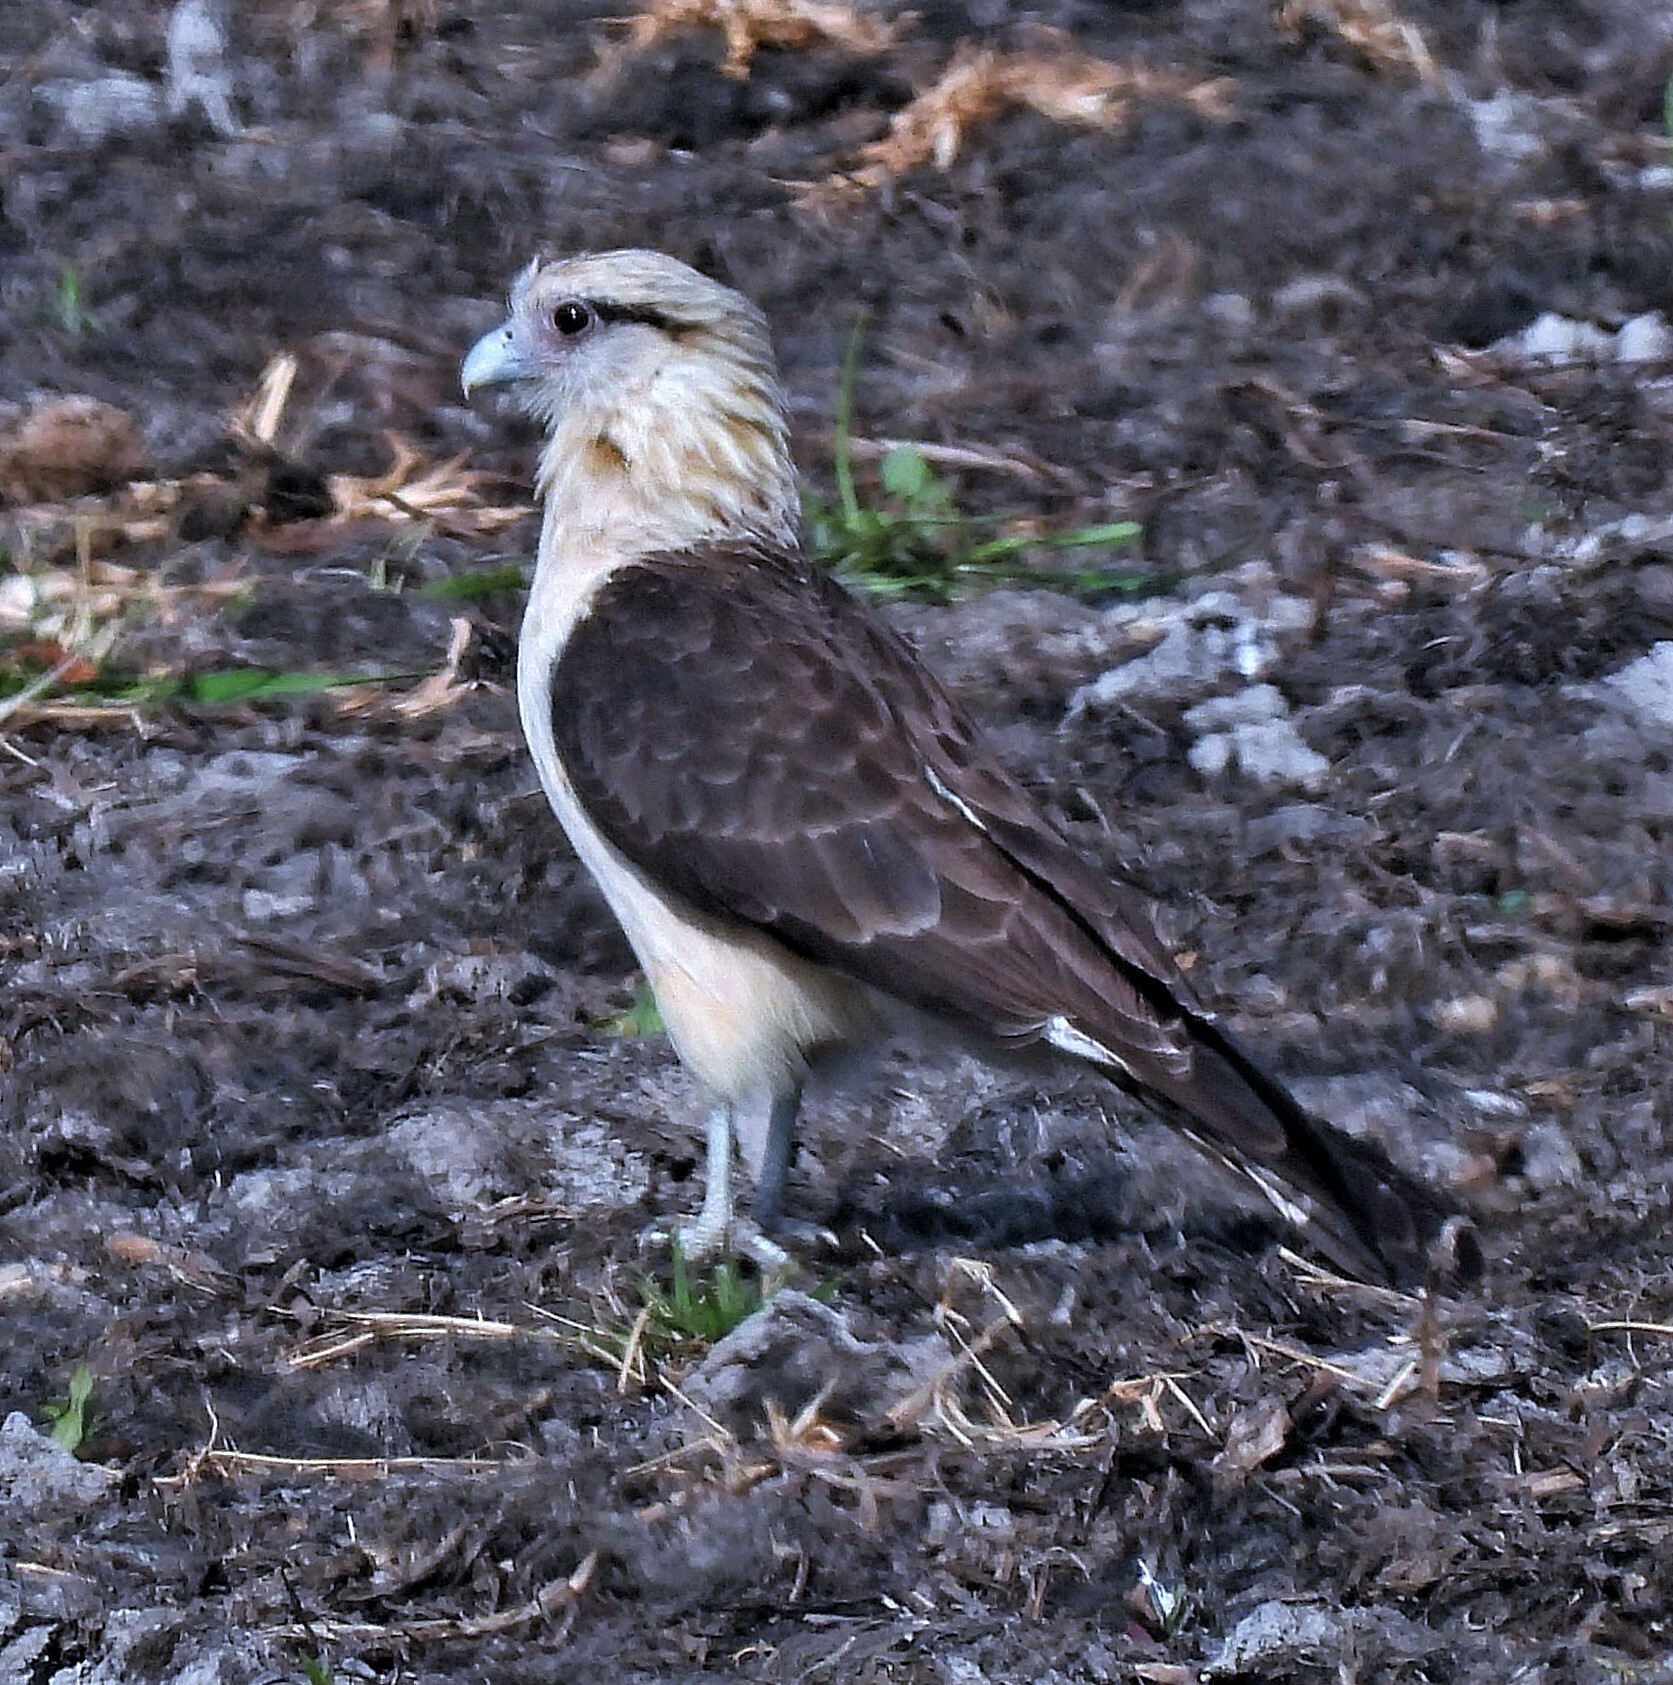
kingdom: Animalia
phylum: Chordata
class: Aves
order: Falconiformes
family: Falconidae
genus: Daptrius
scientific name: Daptrius
